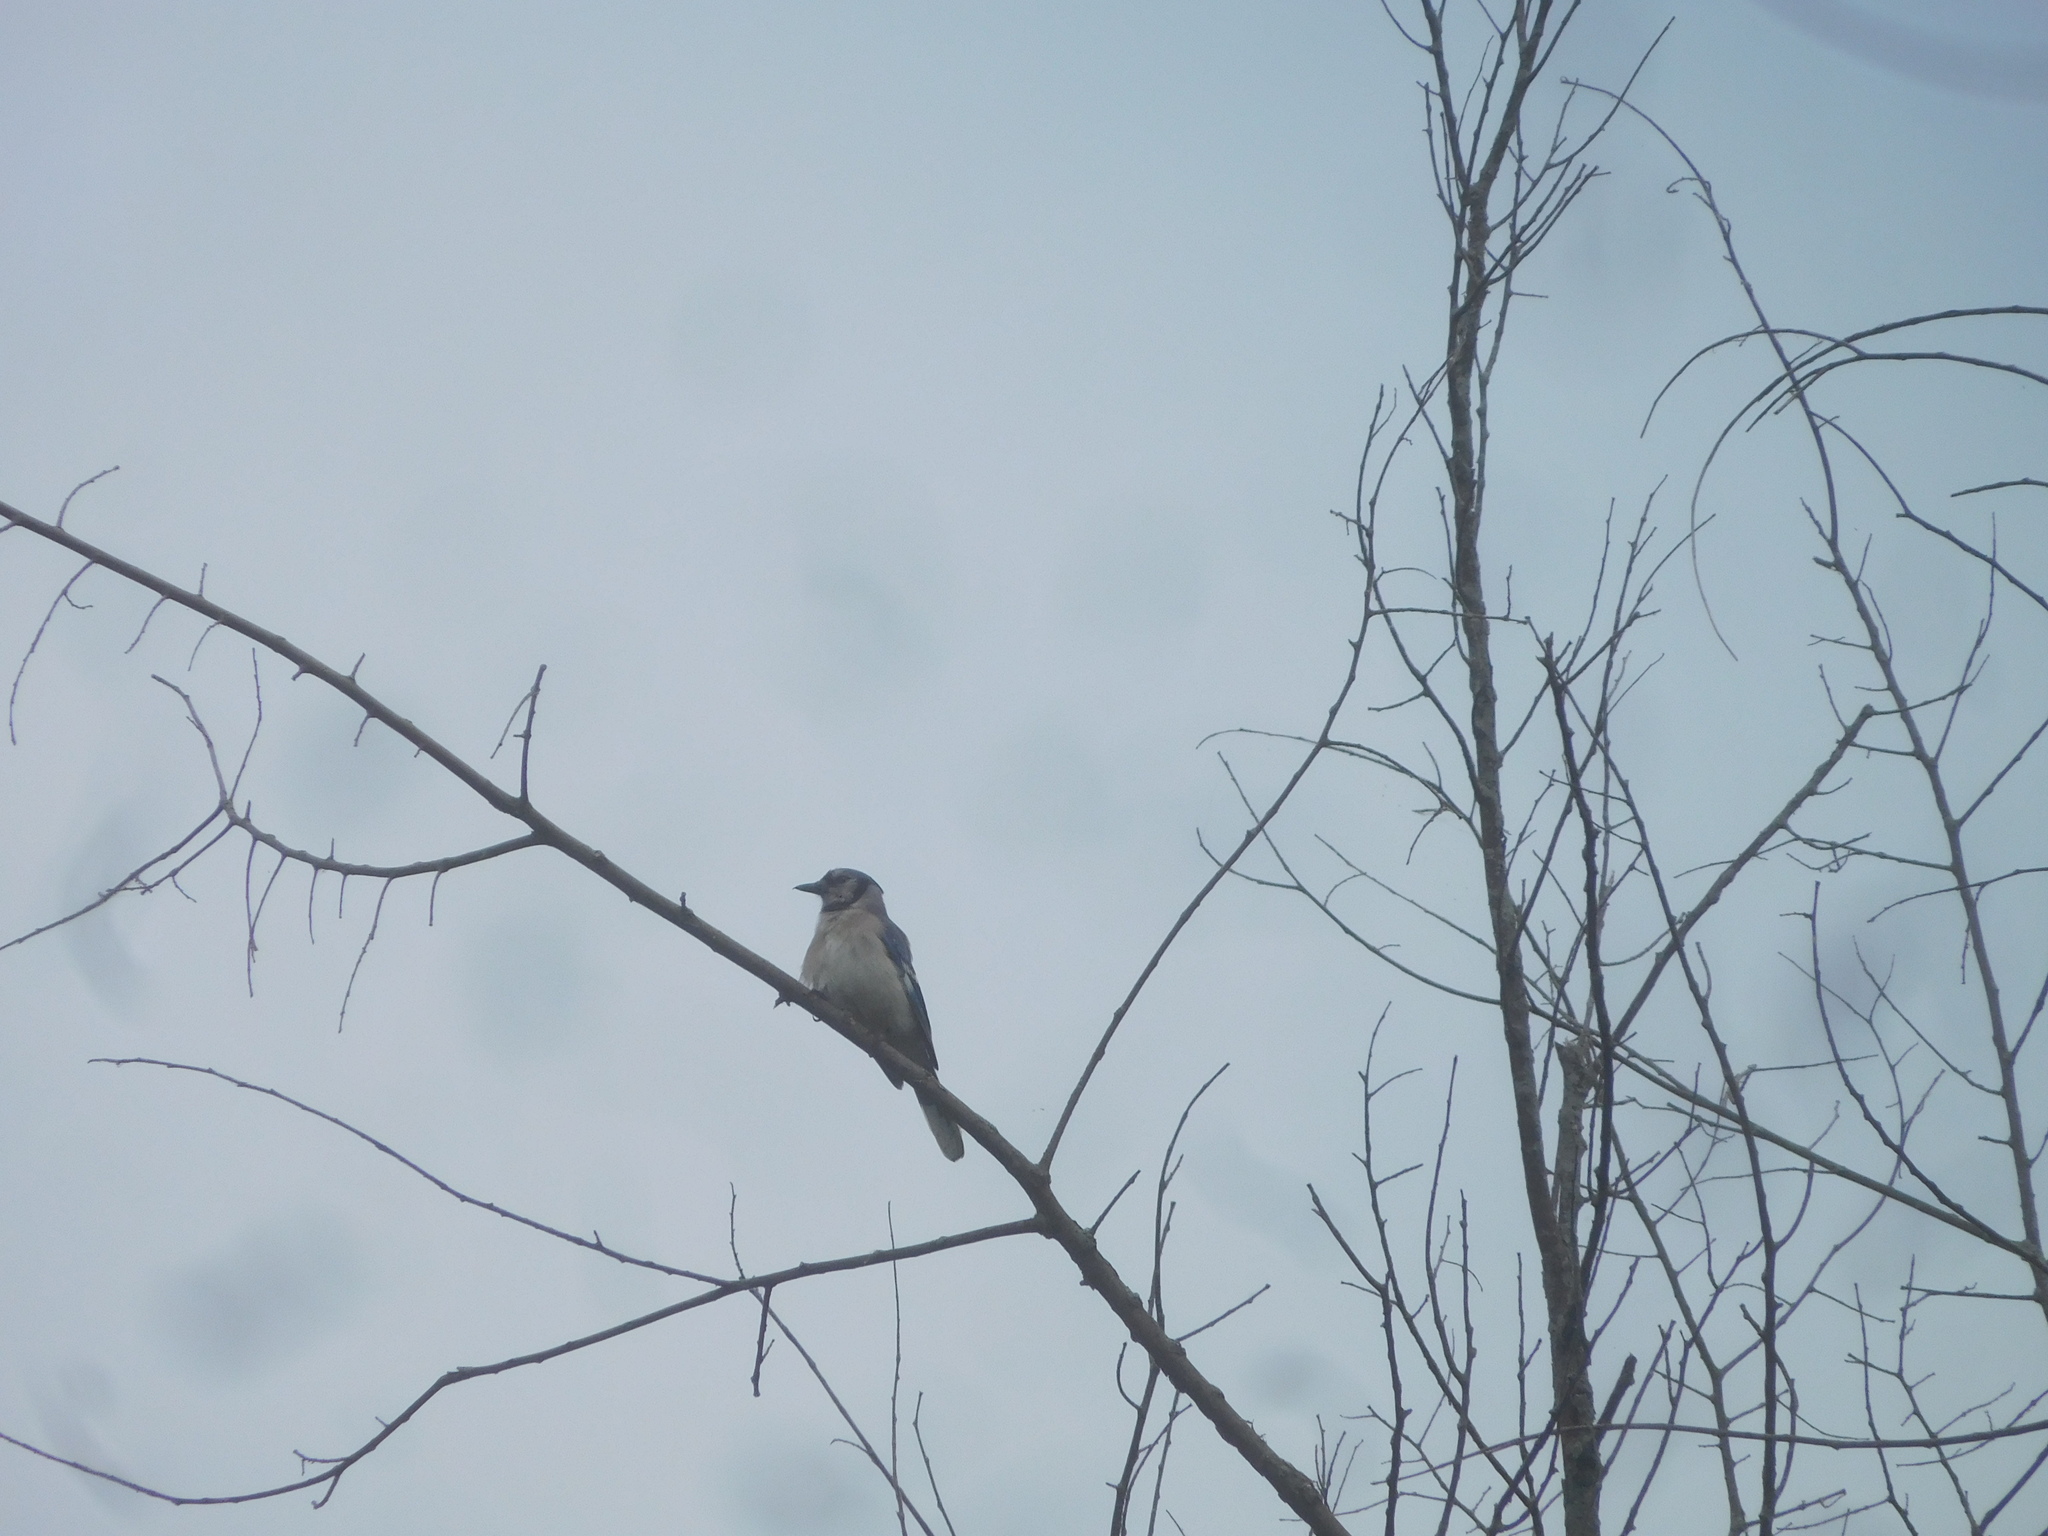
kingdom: Animalia
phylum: Chordata
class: Aves
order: Passeriformes
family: Corvidae
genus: Cyanocitta
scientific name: Cyanocitta cristata
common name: Blue jay
